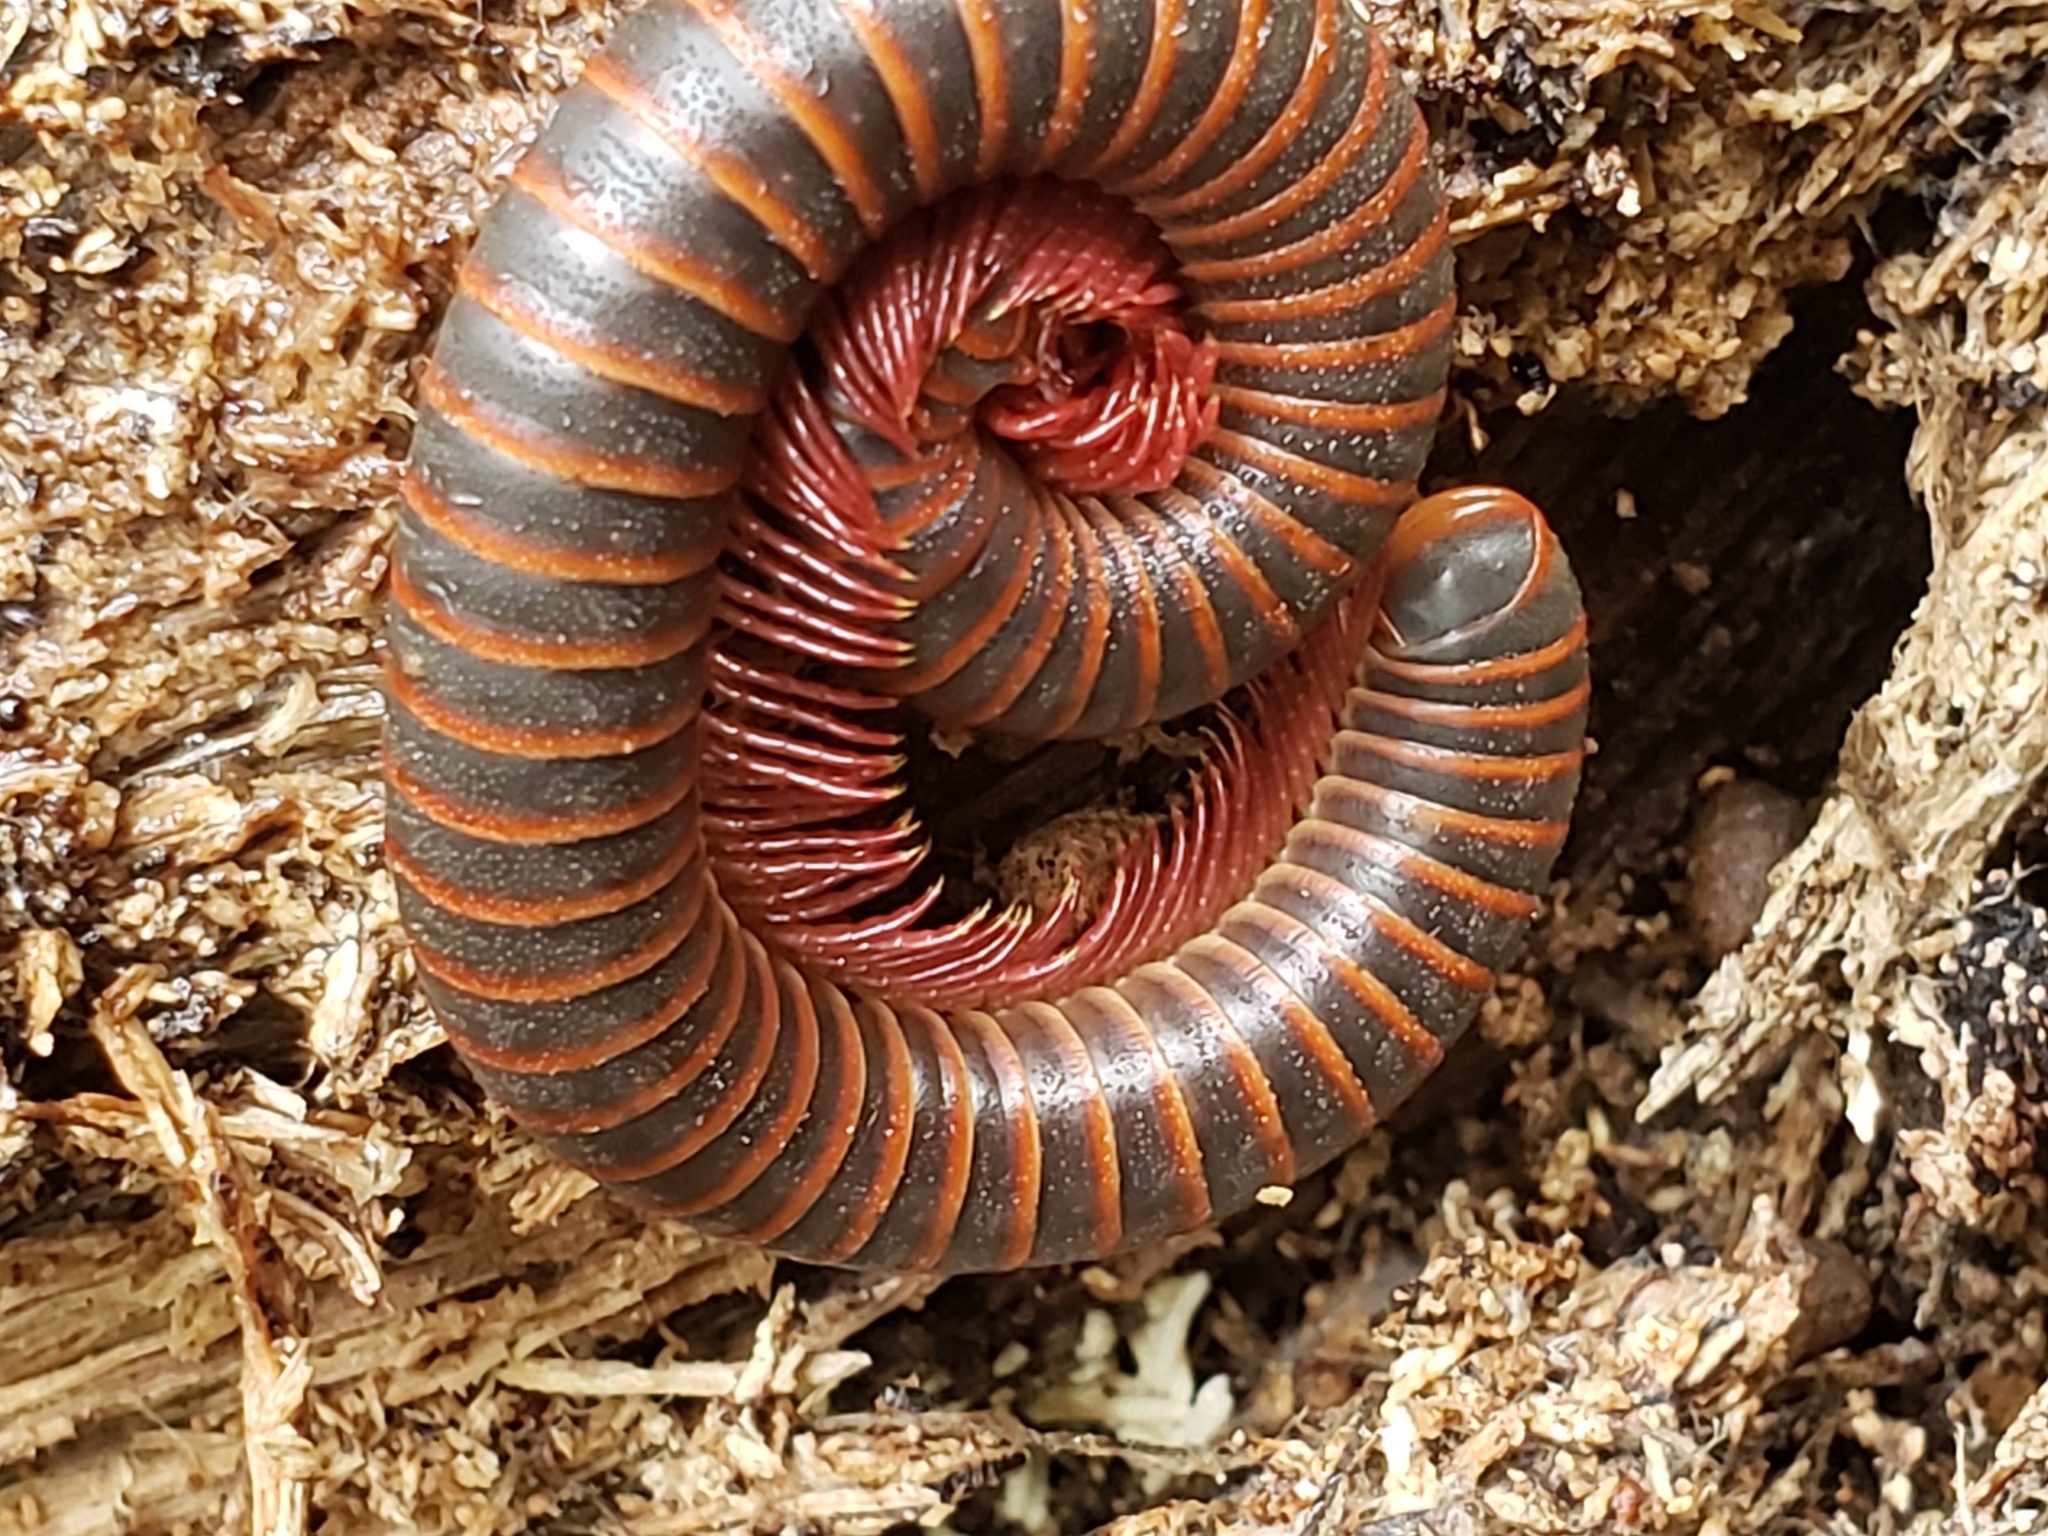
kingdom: Animalia
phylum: Arthropoda
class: Diplopoda
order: Spirobolida
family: Spirobolidae
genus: Narceus
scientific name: Narceus
